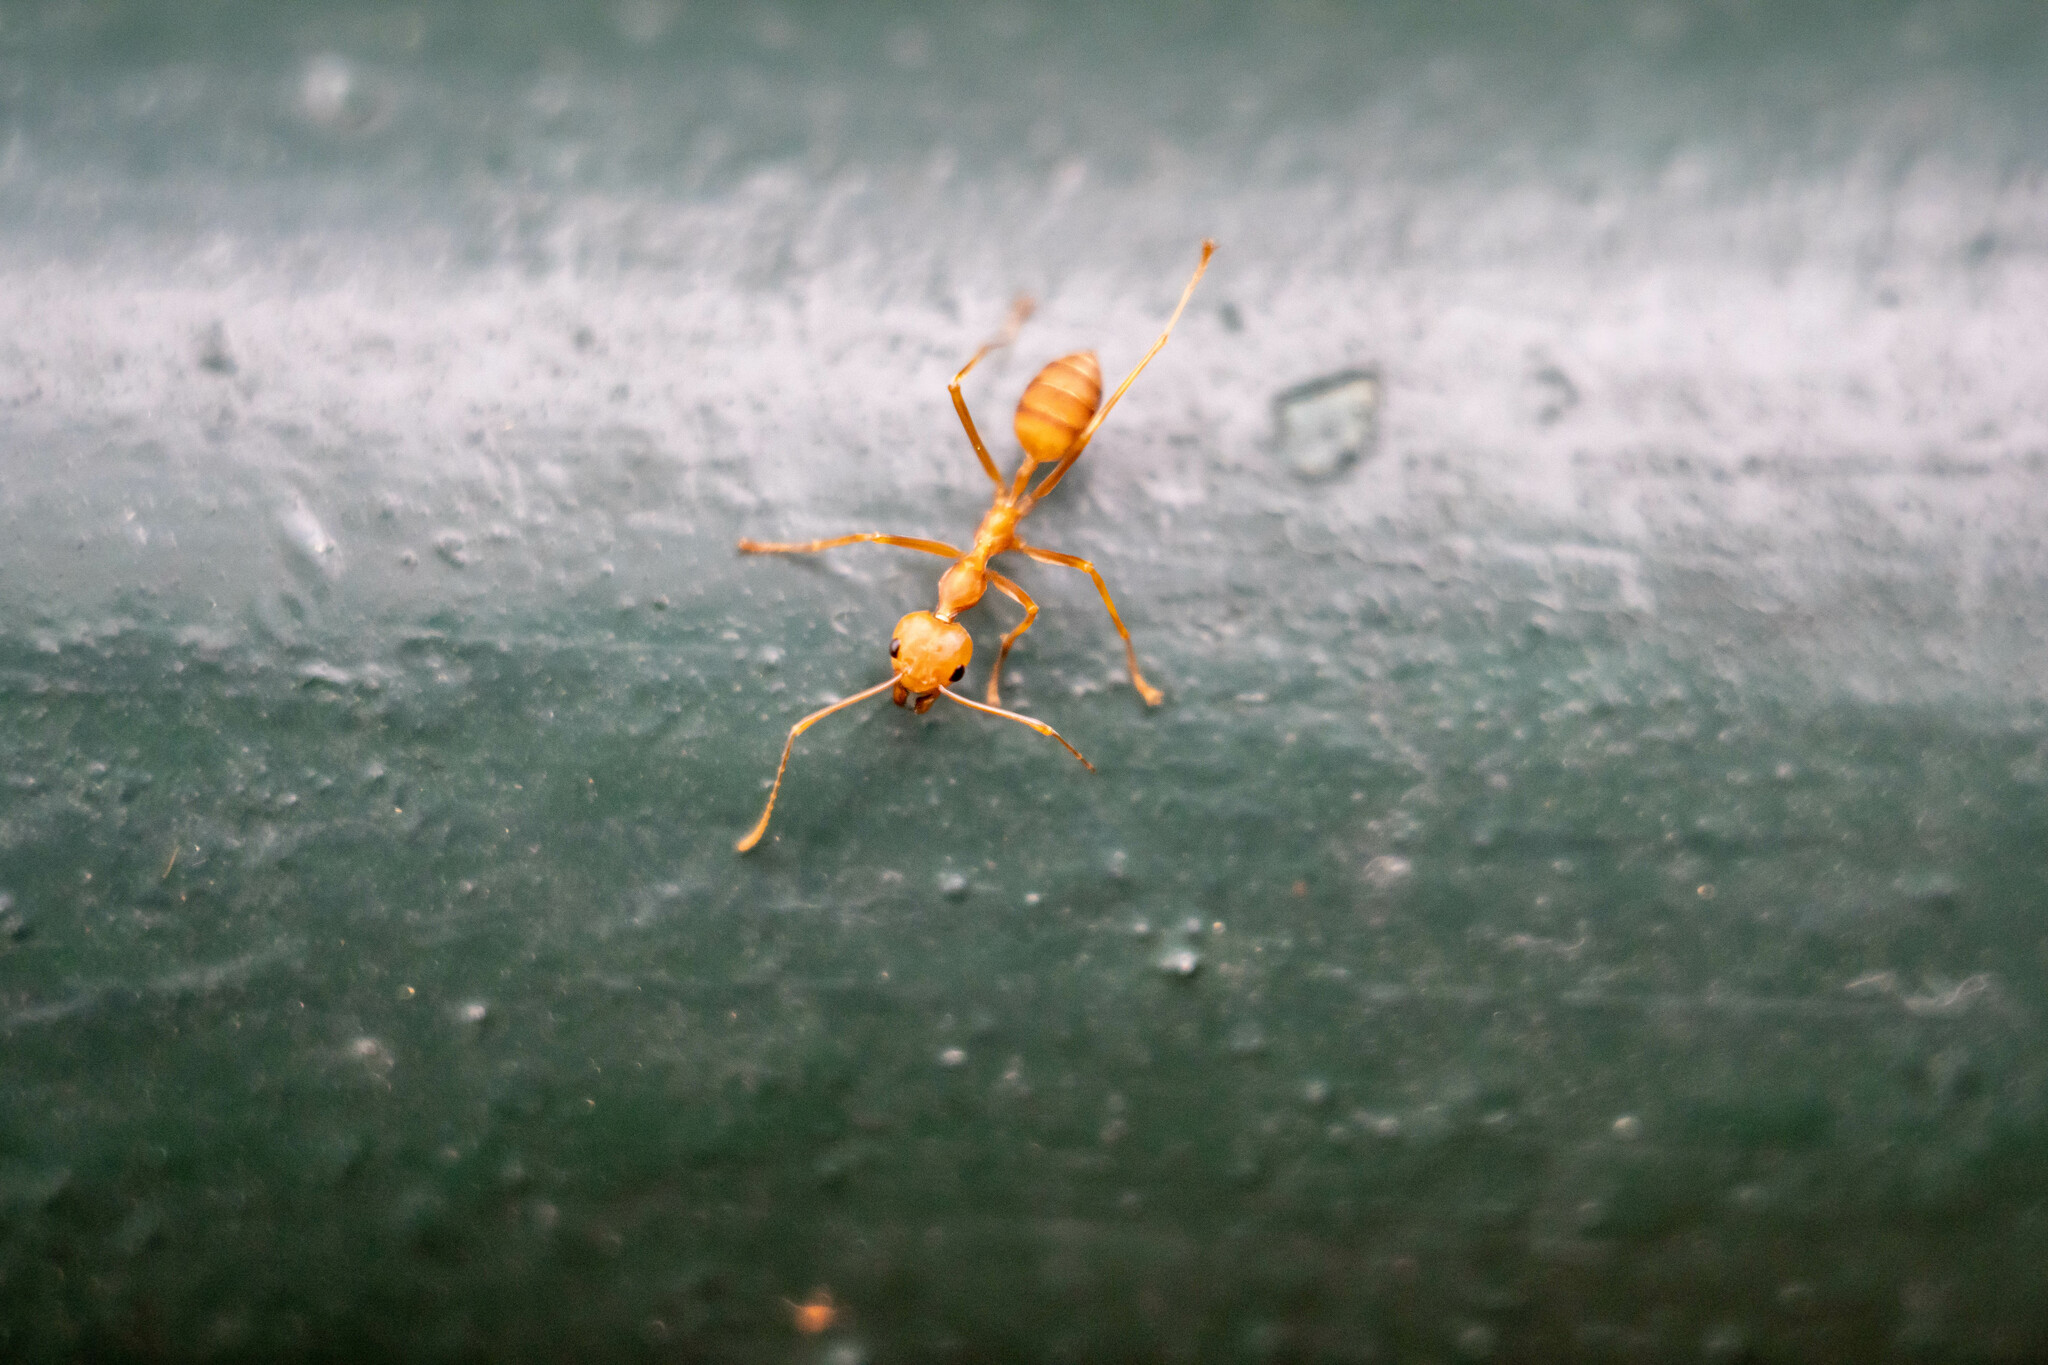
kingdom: Animalia
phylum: Arthropoda
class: Insecta
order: Hymenoptera
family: Formicidae
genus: Oecophylla
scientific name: Oecophylla smaragdina
